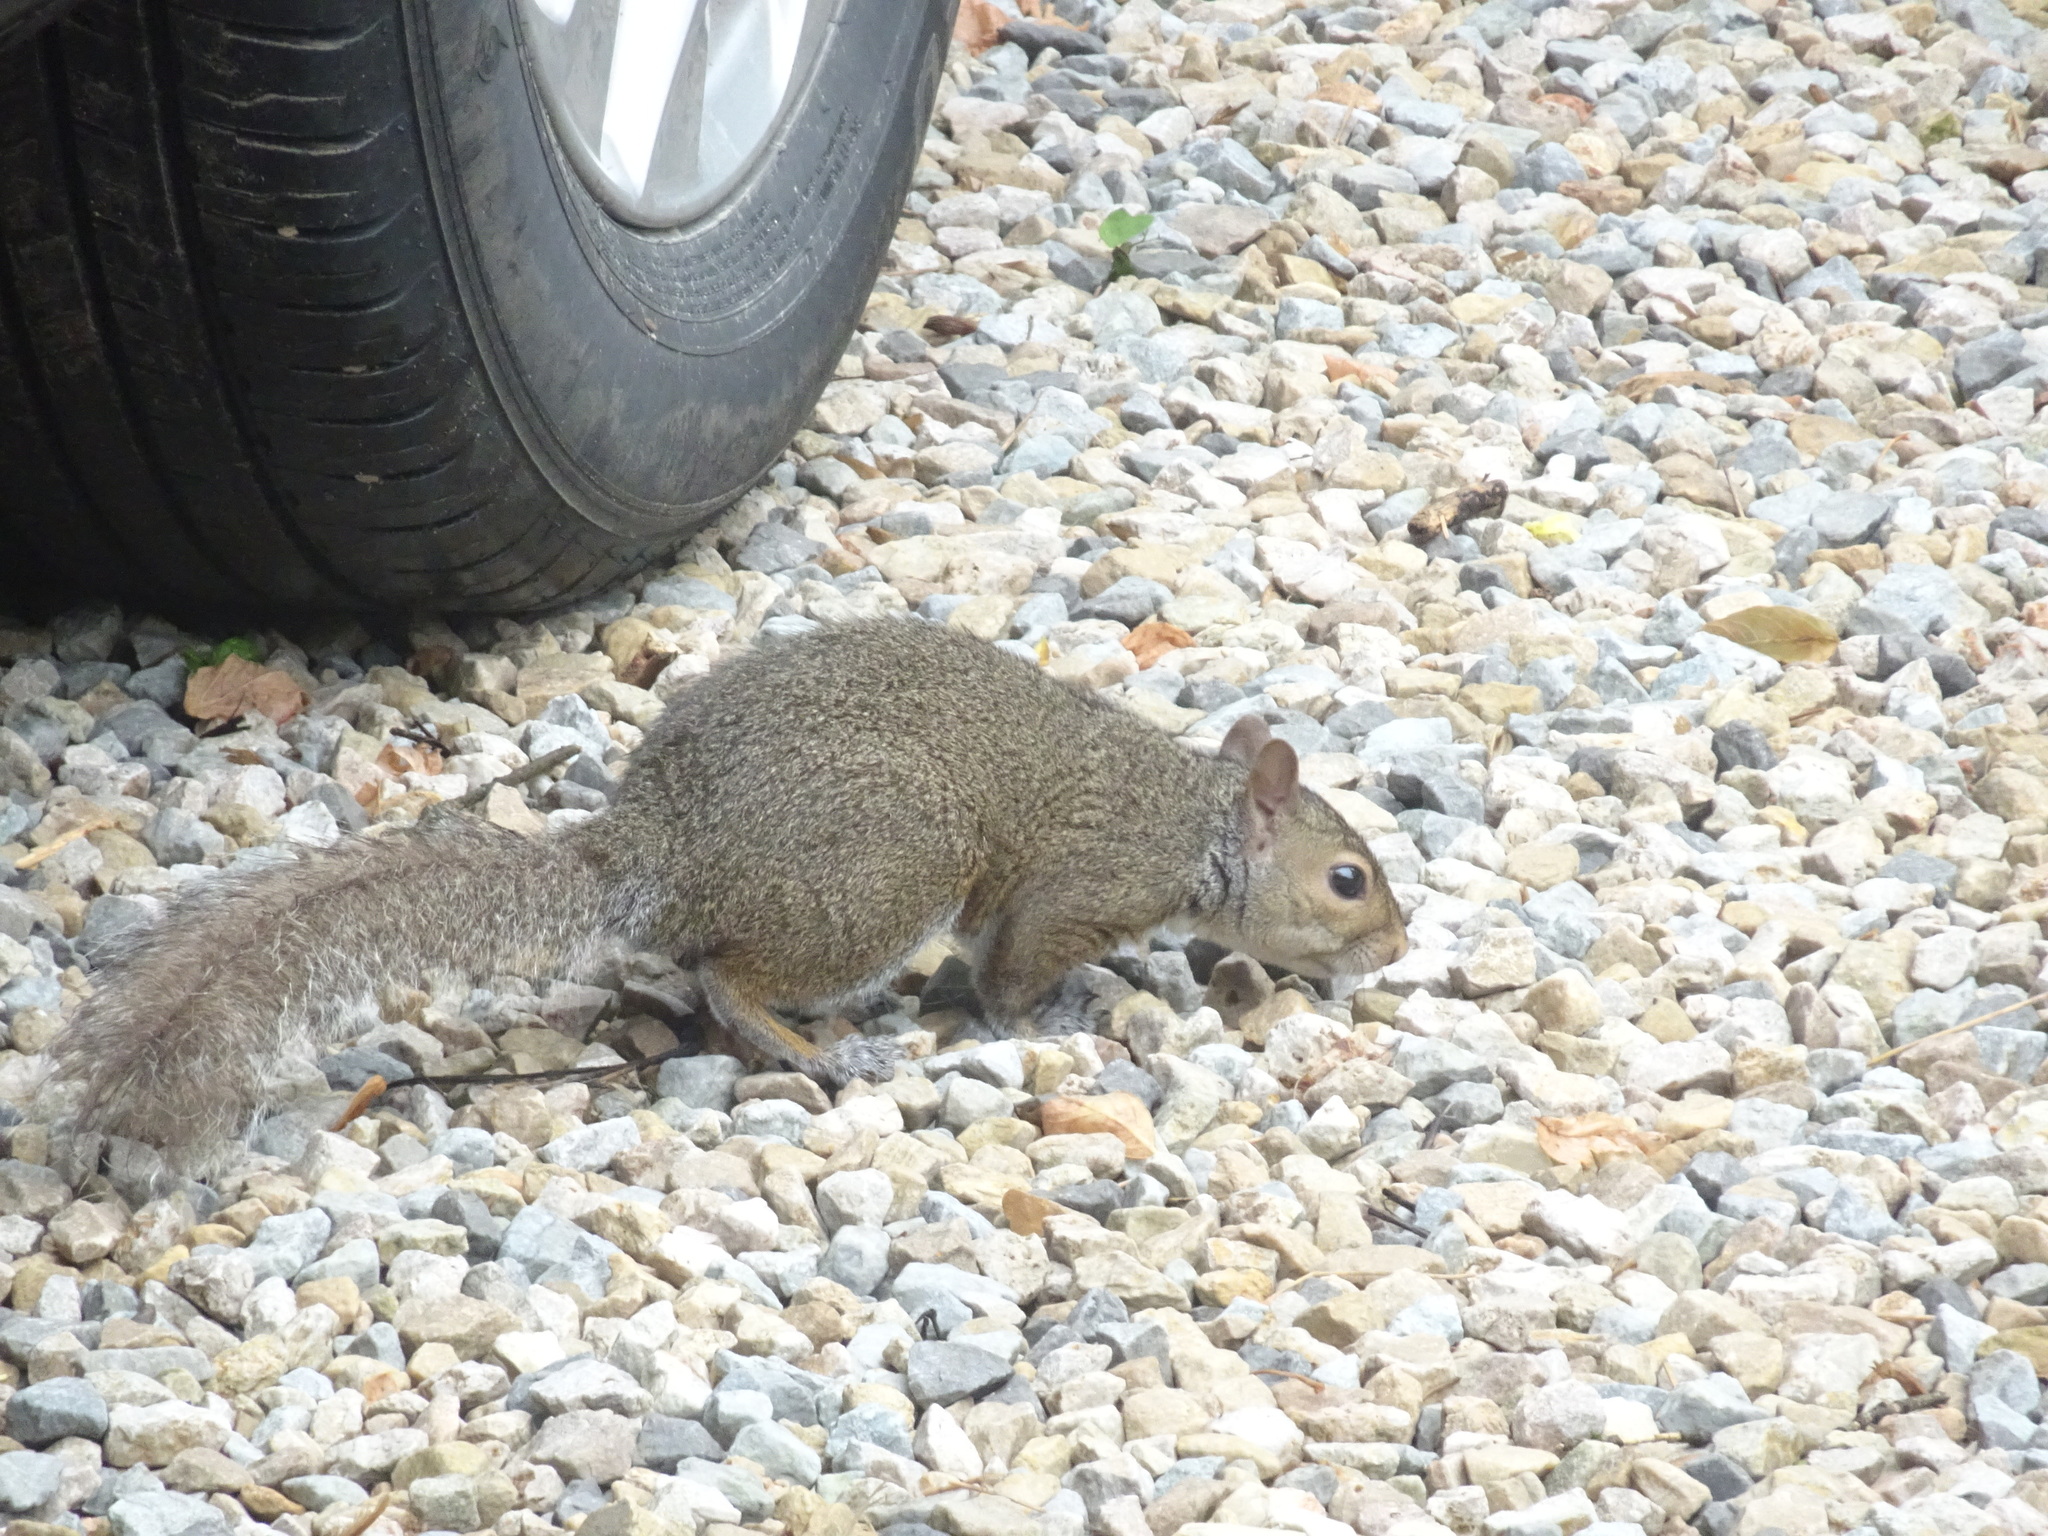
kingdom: Animalia
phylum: Chordata
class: Mammalia
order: Rodentia
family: Sciuridae
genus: Sciurus
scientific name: Sciurus carolinensis
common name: Eastern gray squirrel
